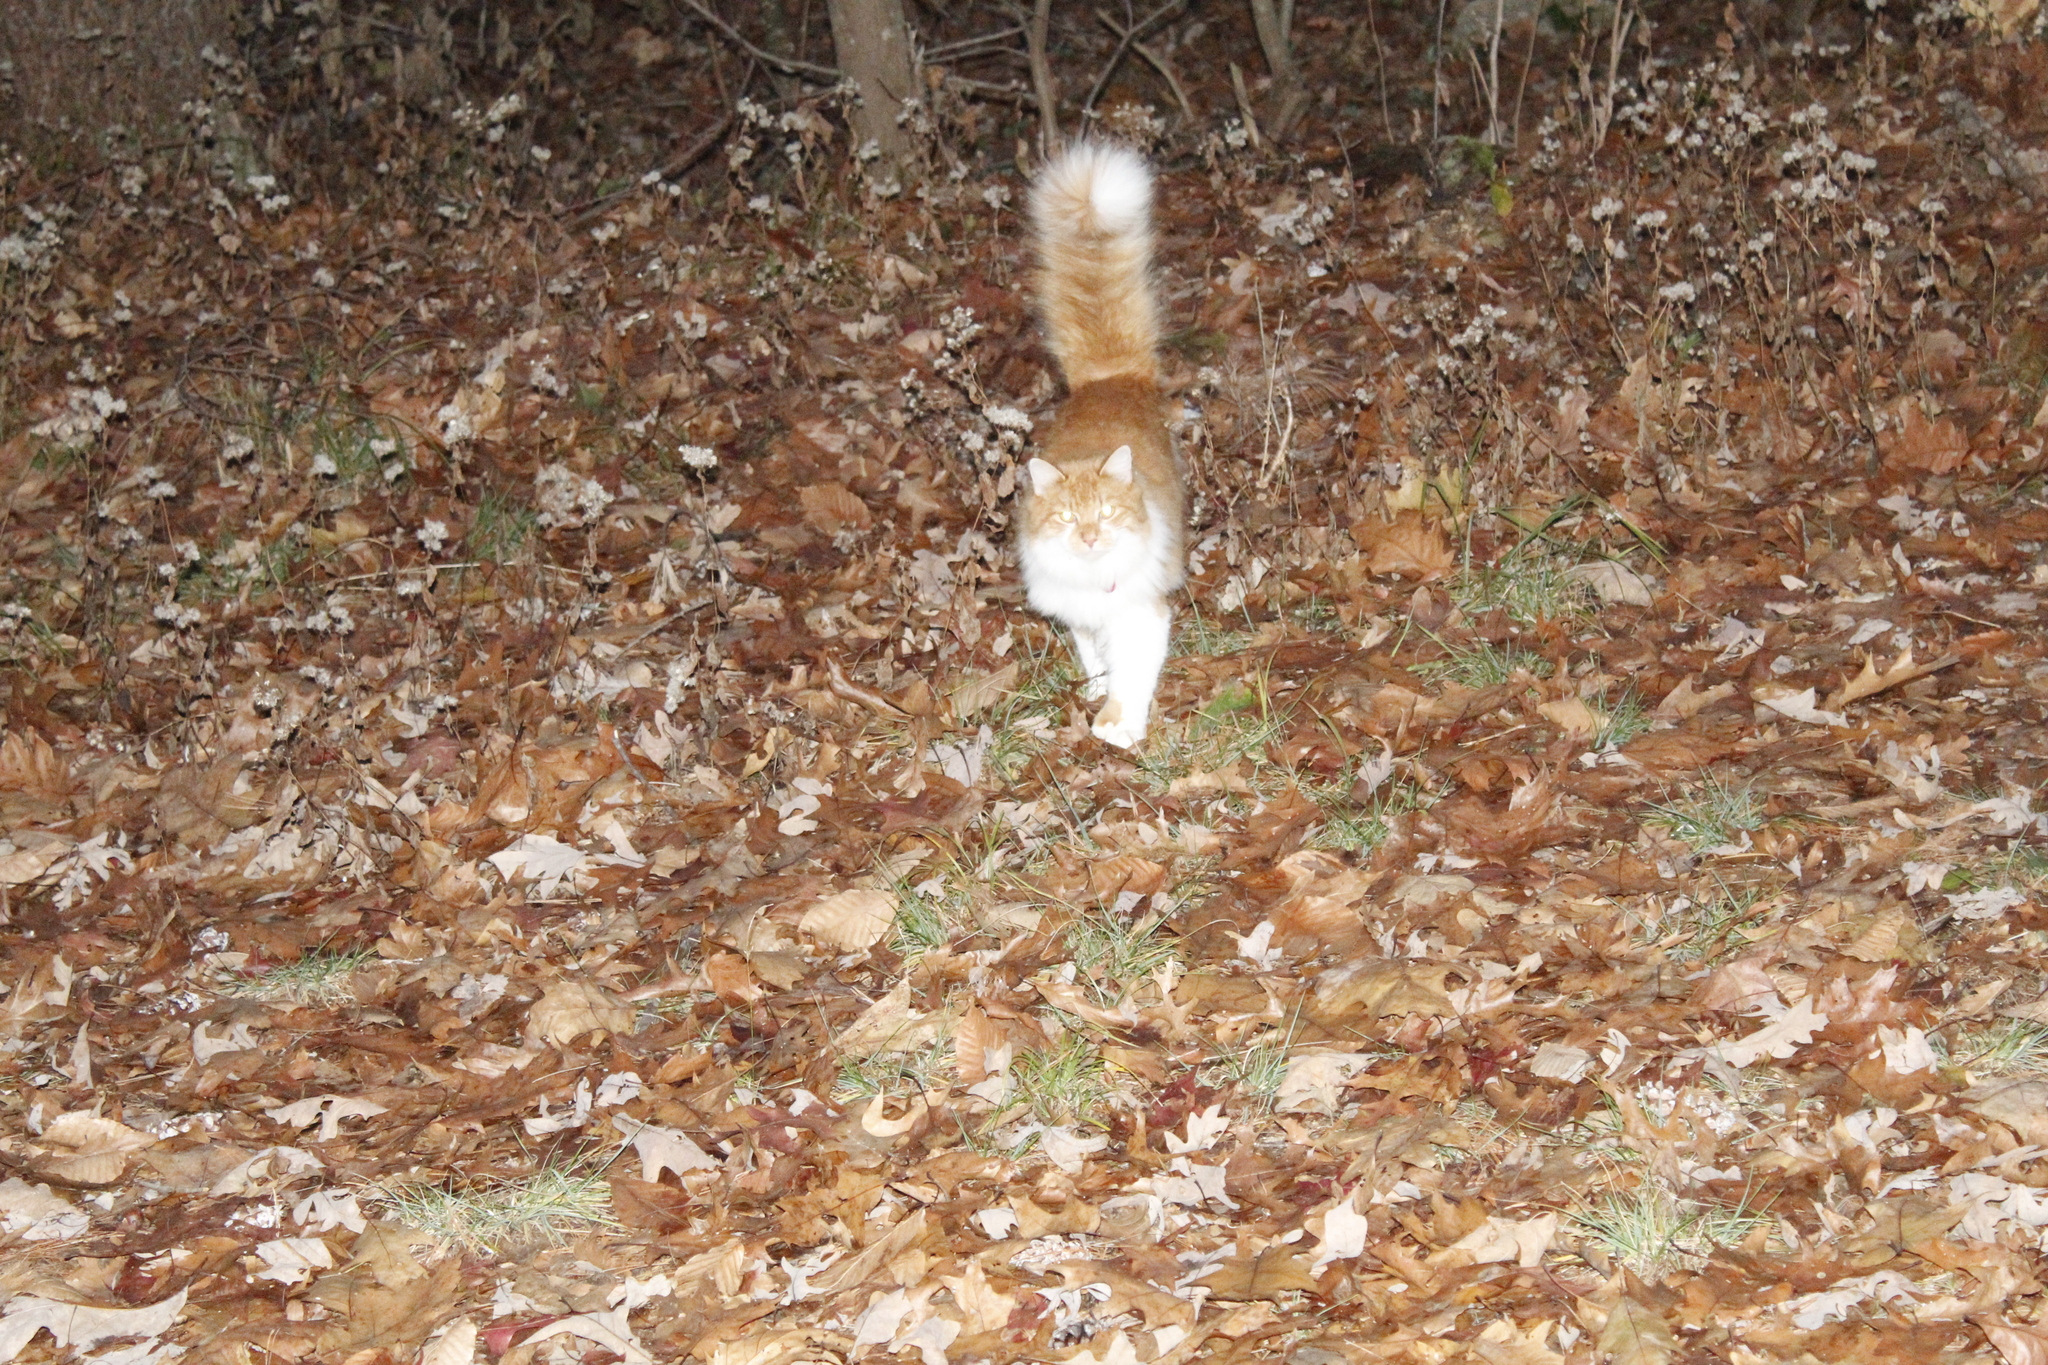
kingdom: Animalia
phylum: Chordata
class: Mammalia
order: Carnivora
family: Felidae
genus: Felis
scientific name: Felis catus
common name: Domestic cat
